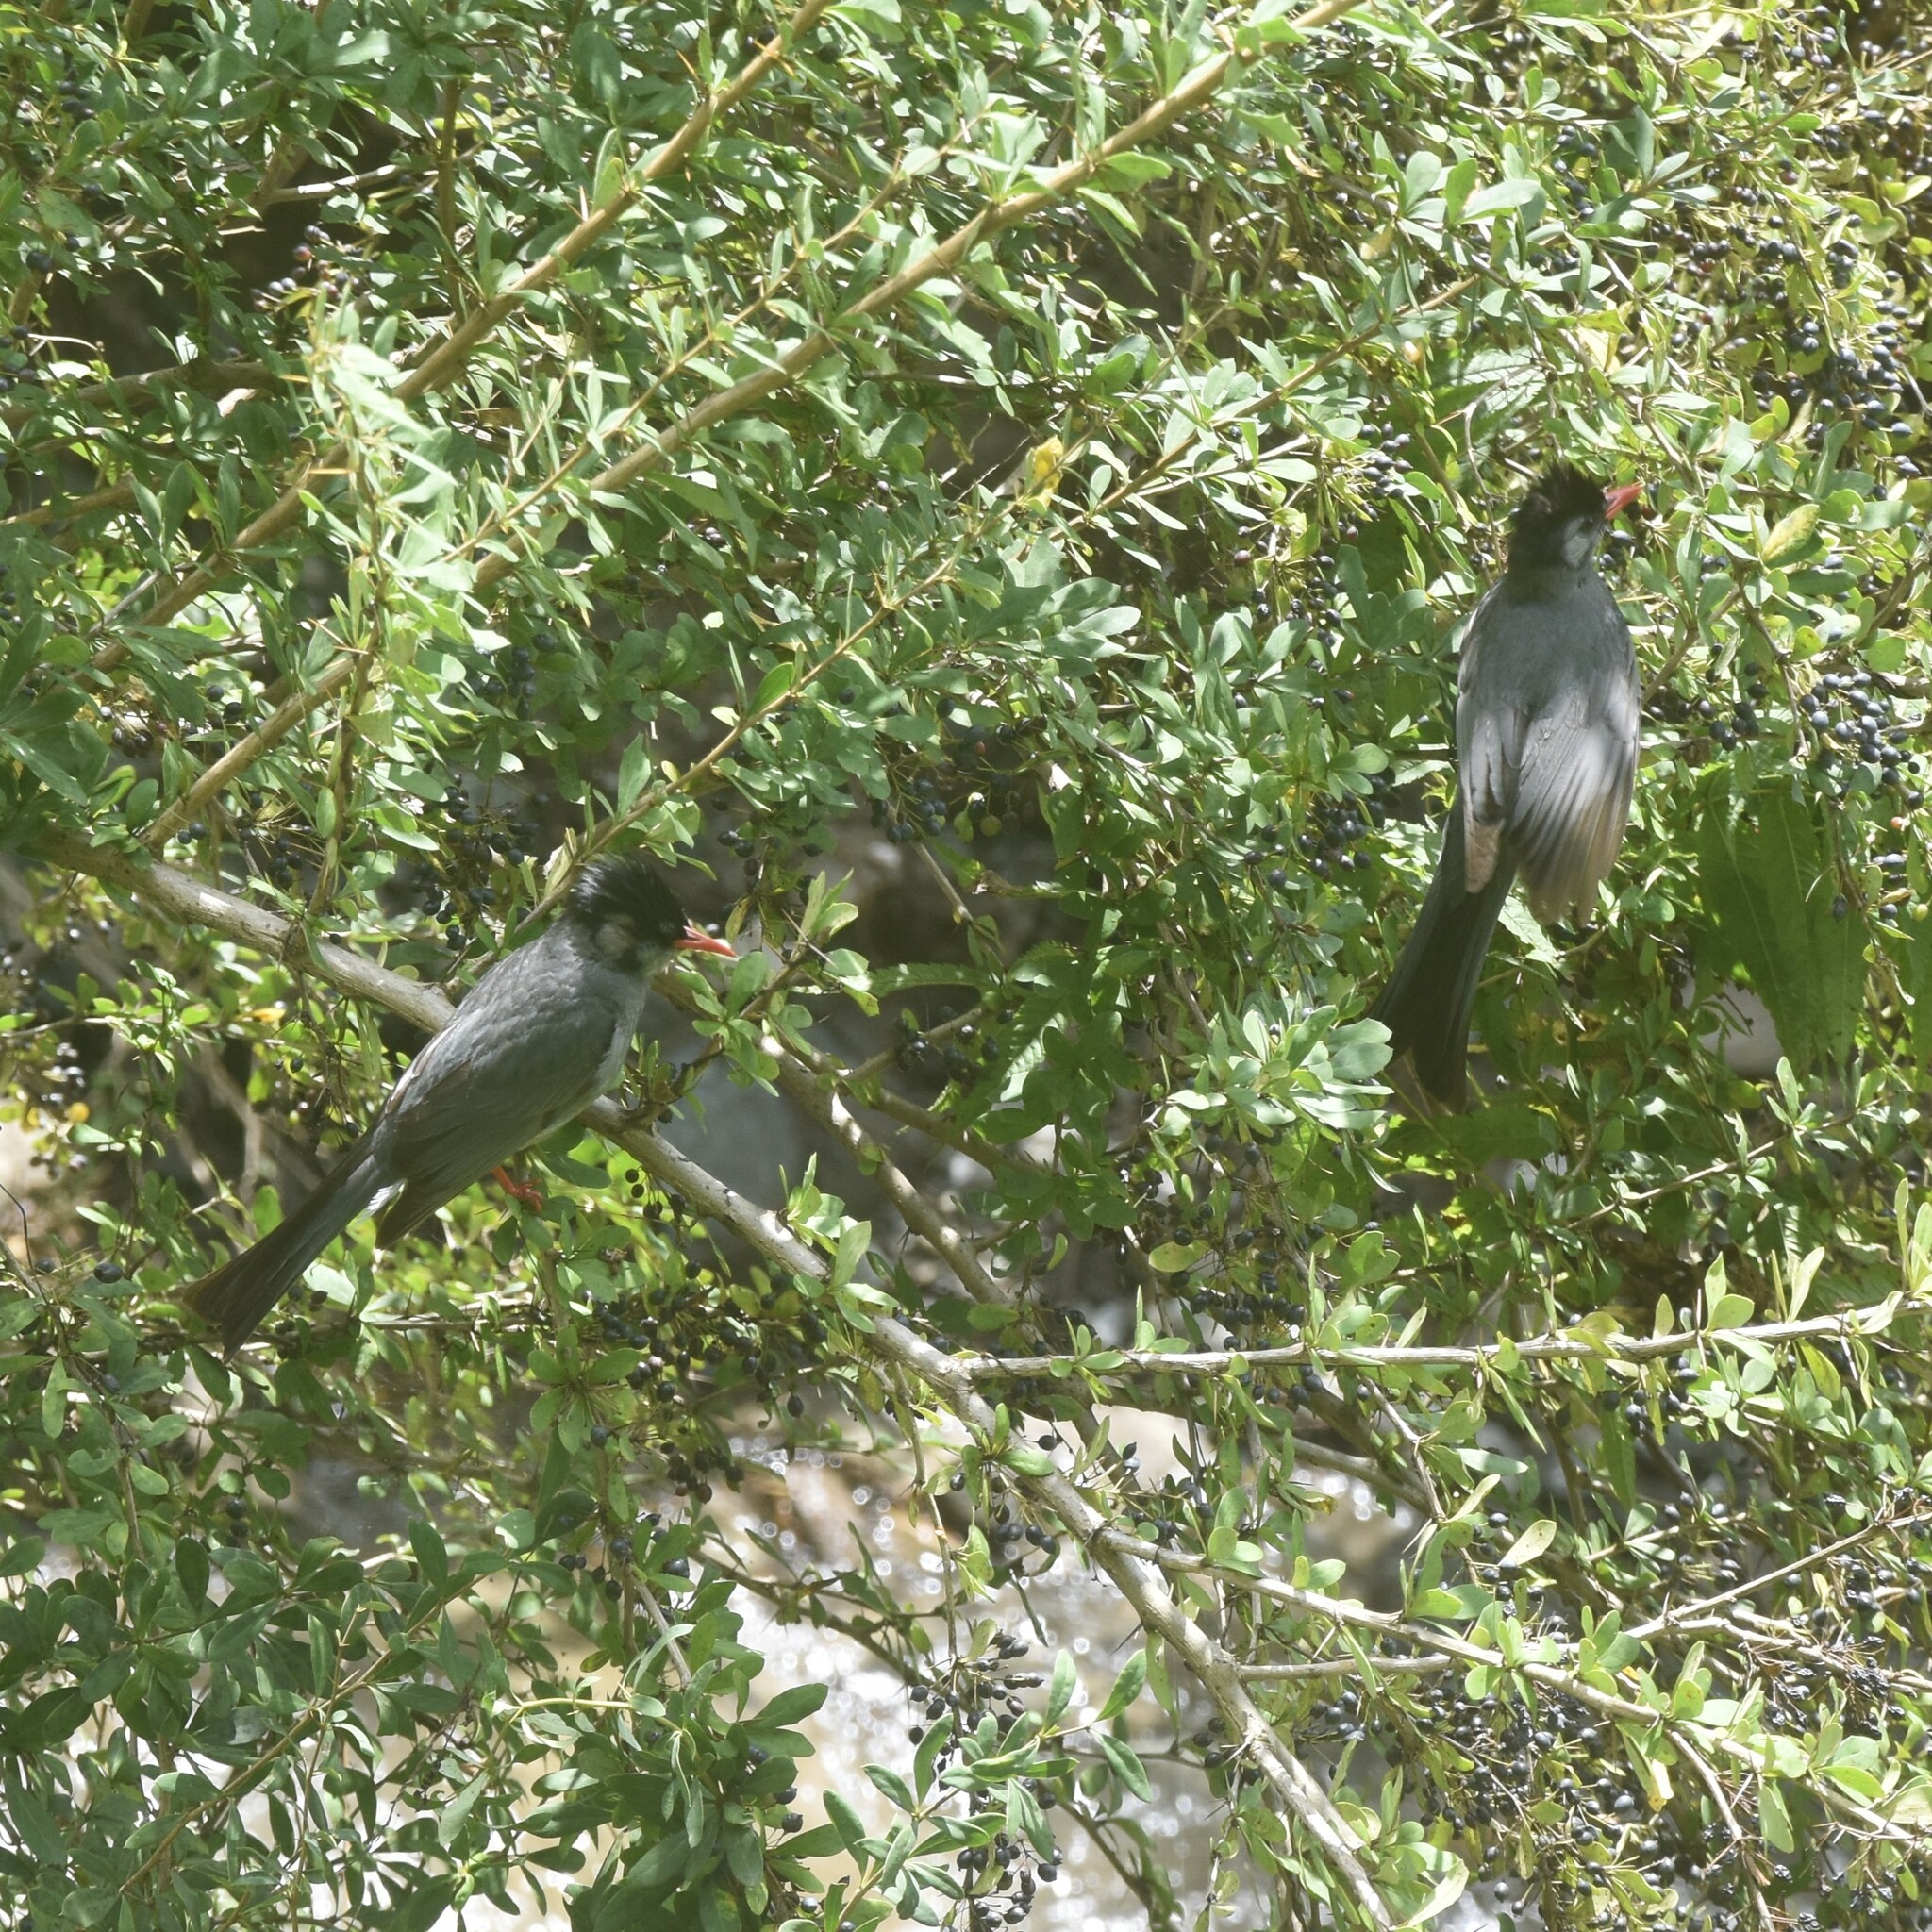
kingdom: Animalia
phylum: Chordata
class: Aves
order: Passeriformes
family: Pycnonotidae
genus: Hypsipetes
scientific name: Hypsipetes leucocephalus
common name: Black bulbul
